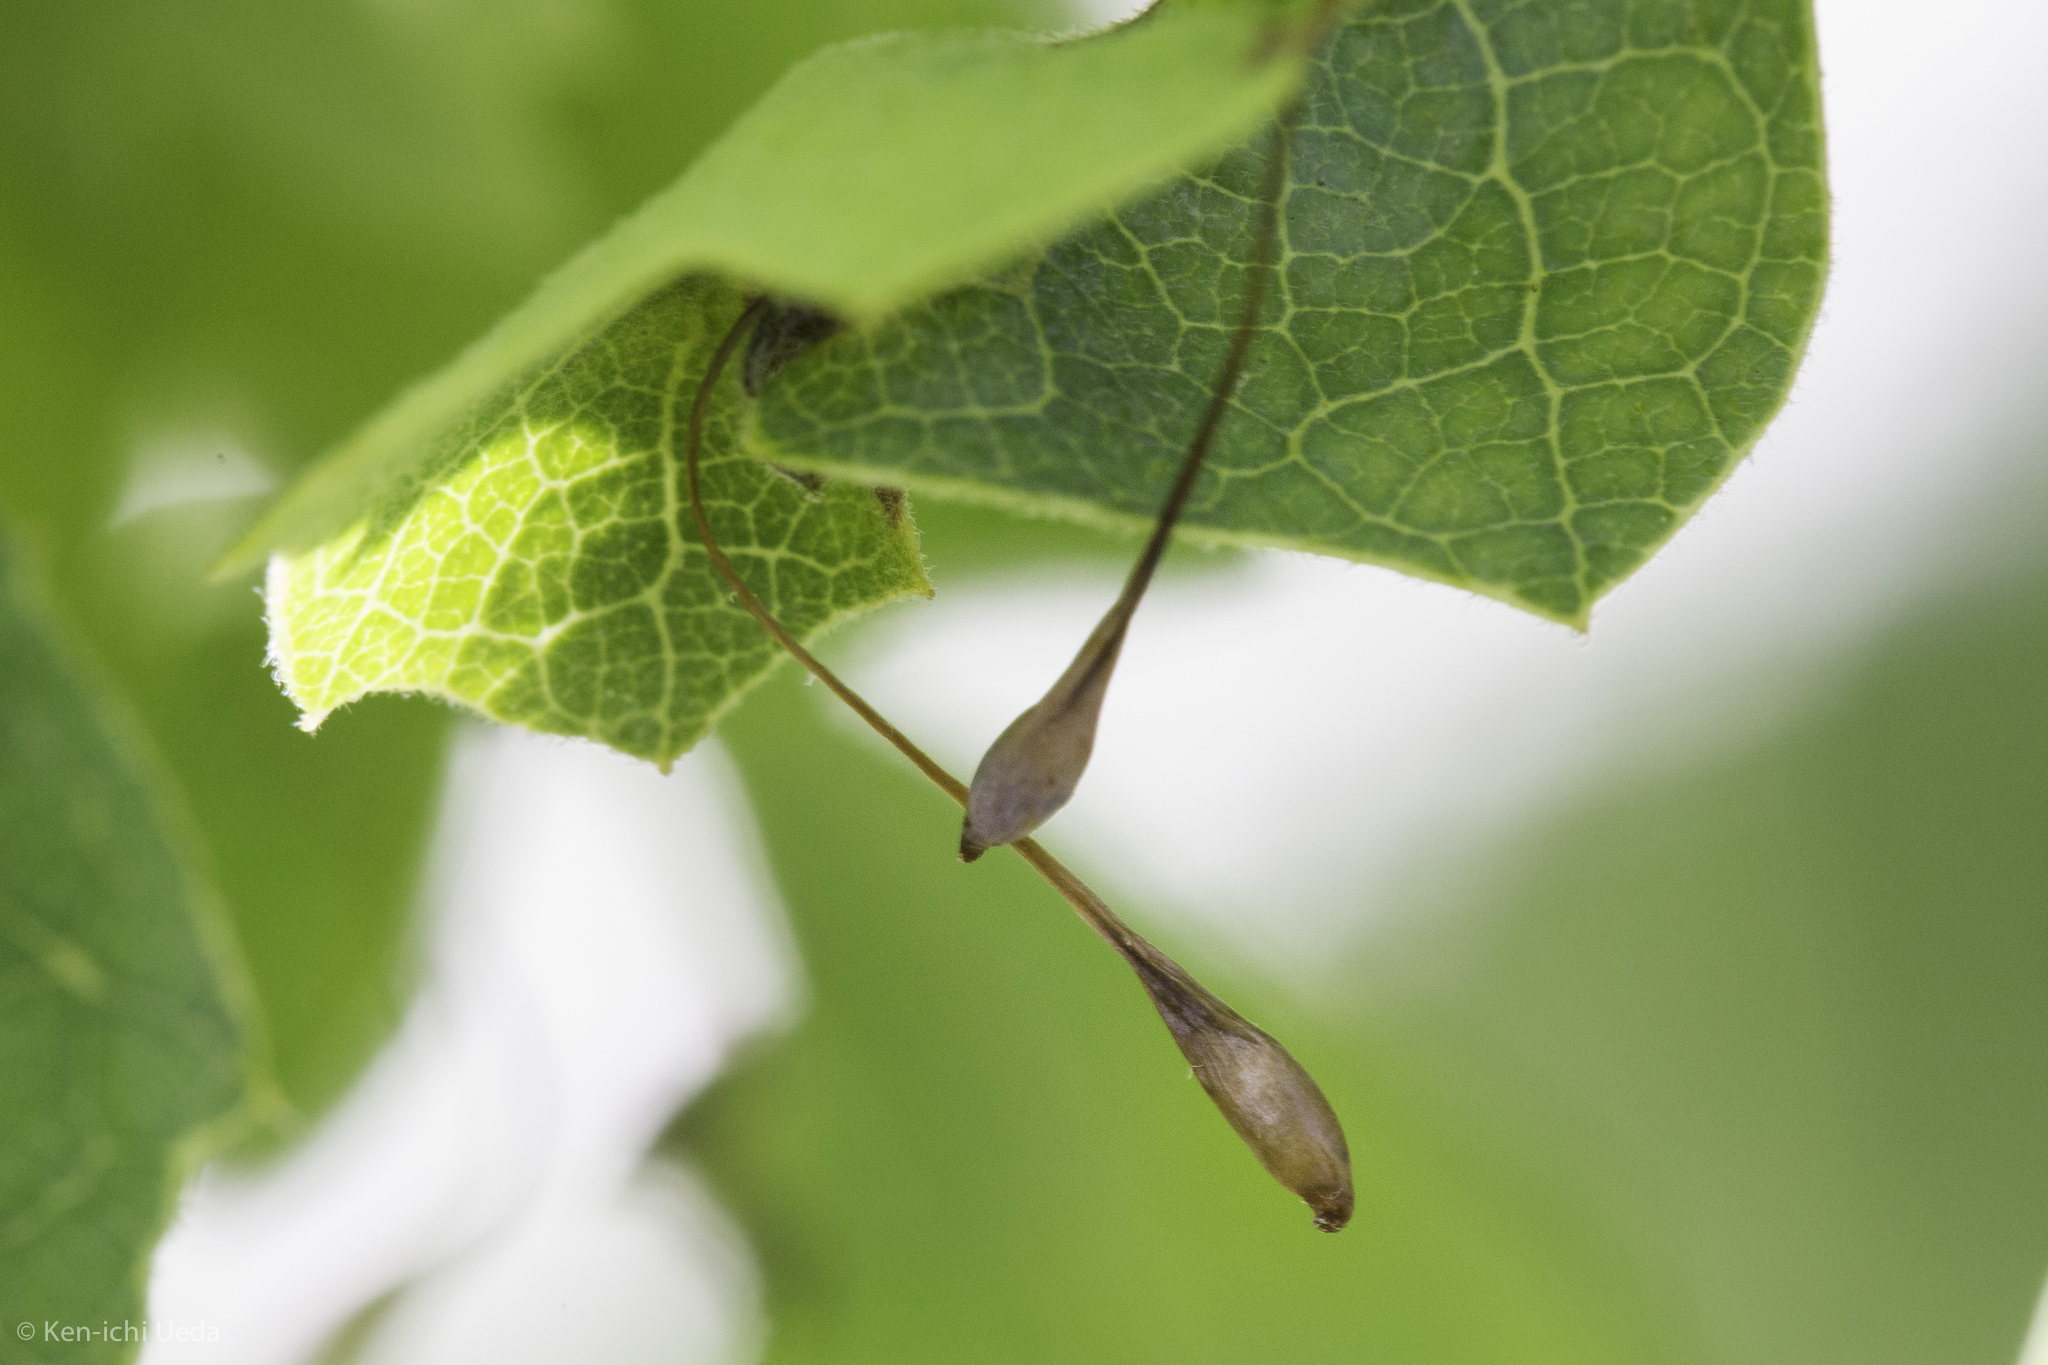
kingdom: Animalia
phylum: Arthropoda
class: Insecta
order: Hymenoptera
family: Cynipidae
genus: Andricus
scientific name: Andricus
